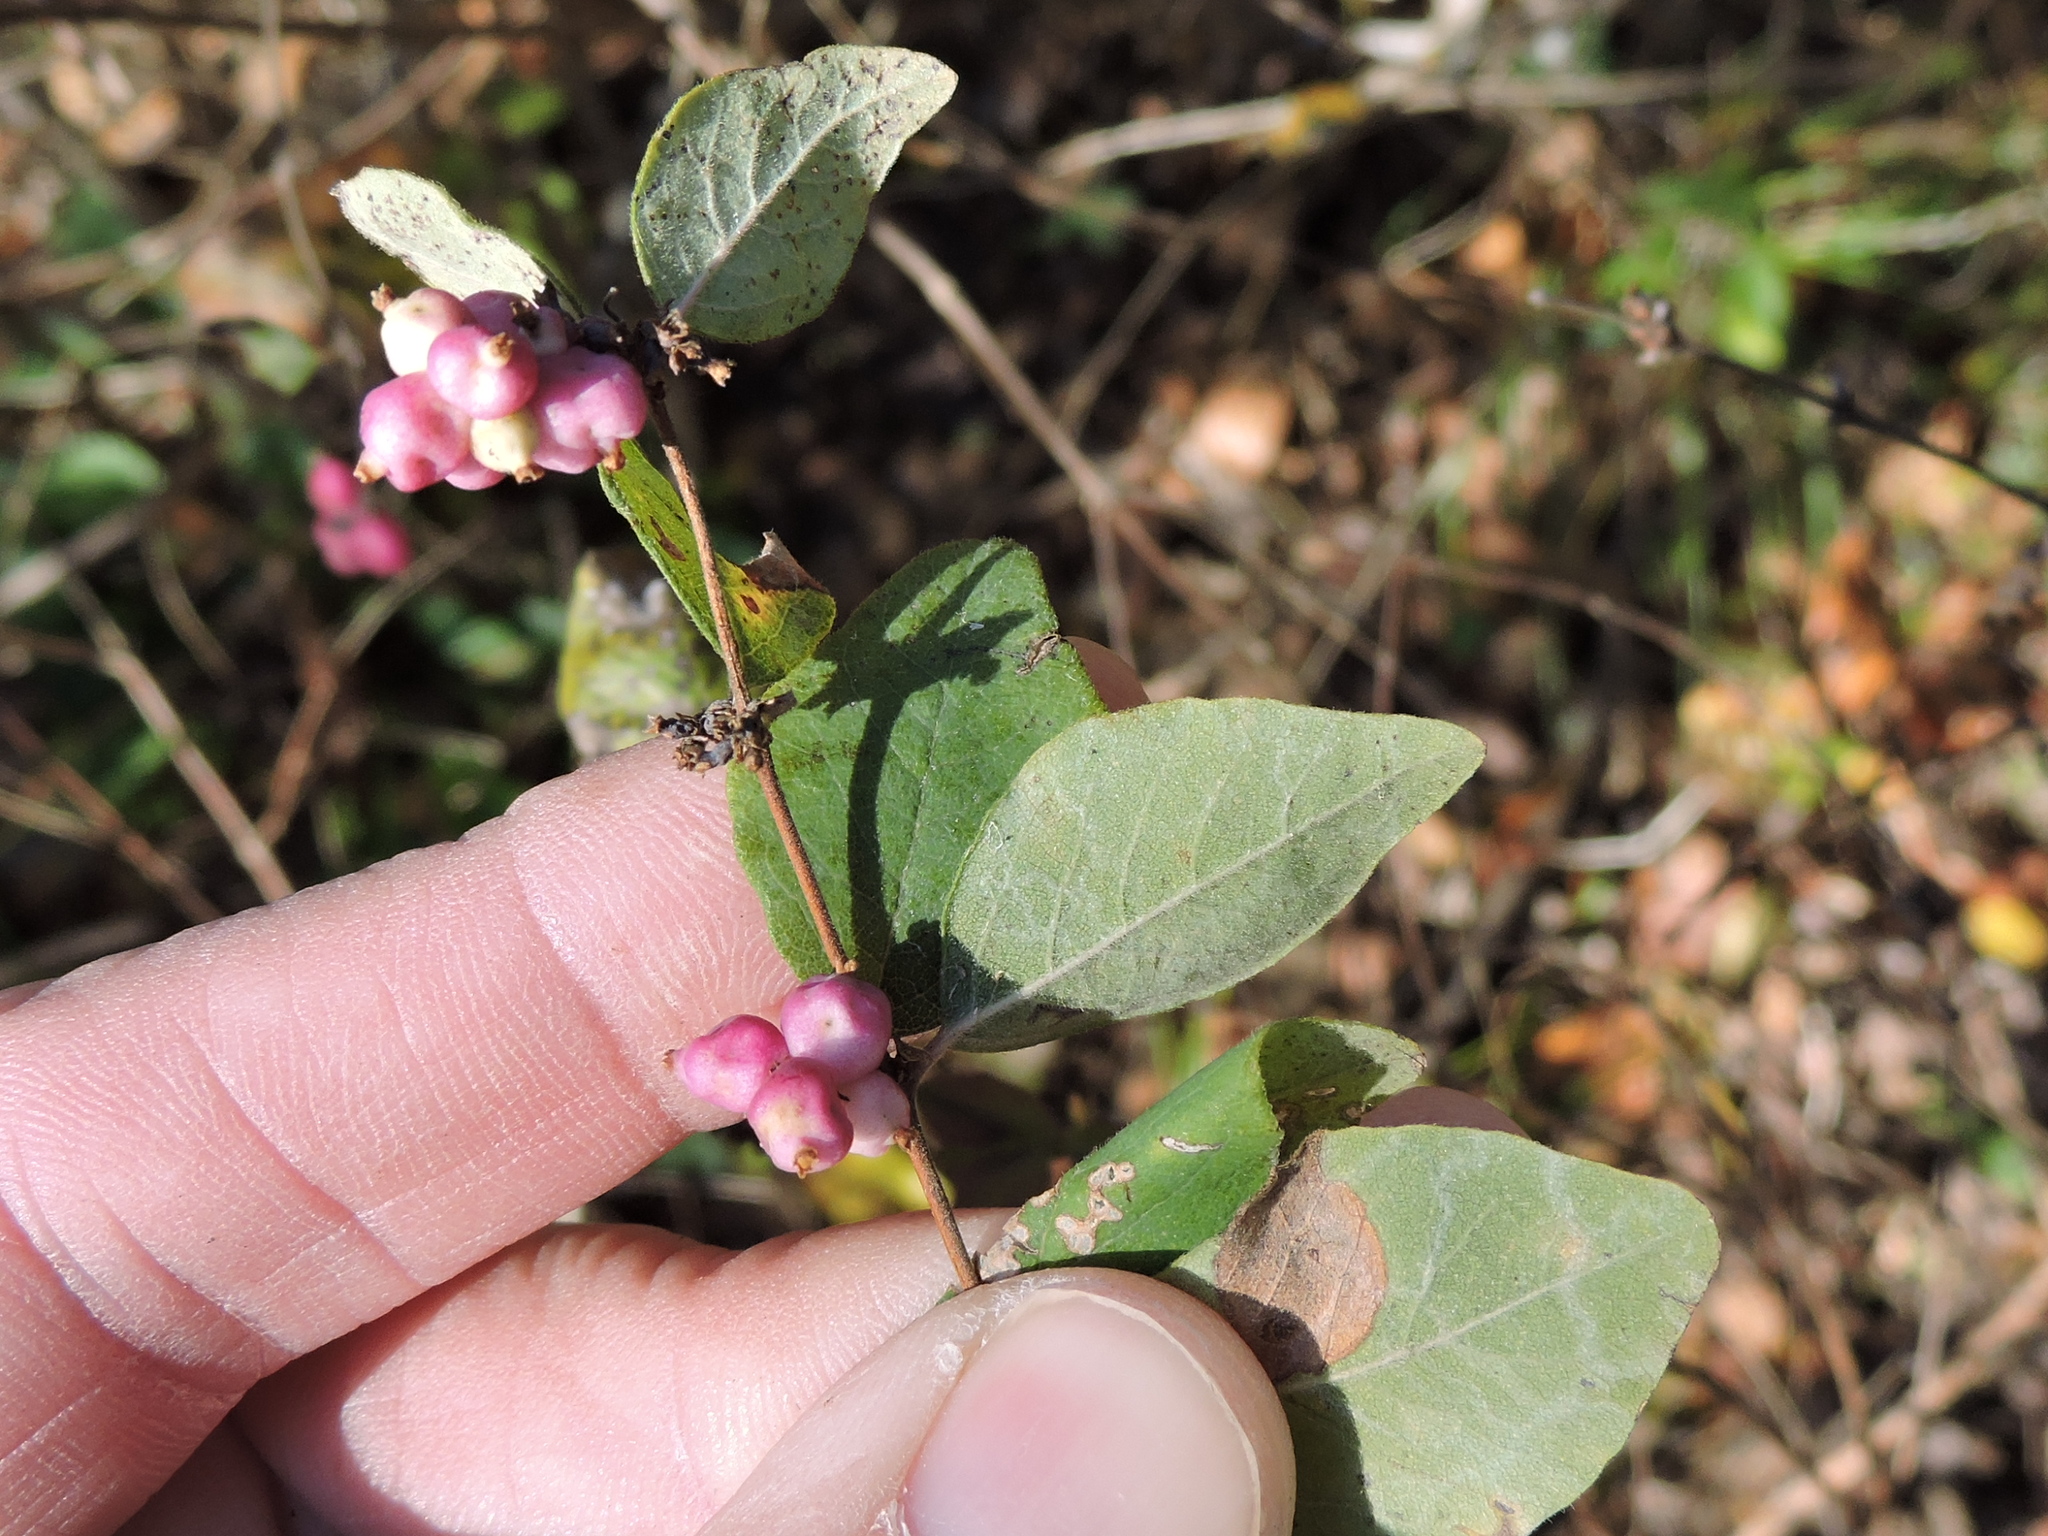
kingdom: Plantae
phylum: Tracheophyta
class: Magnoliopsida
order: Dipsacales
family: Caprifoliaceae
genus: Symphoricarpos
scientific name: Symphoricarpos orbiculatus
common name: Coralberry
